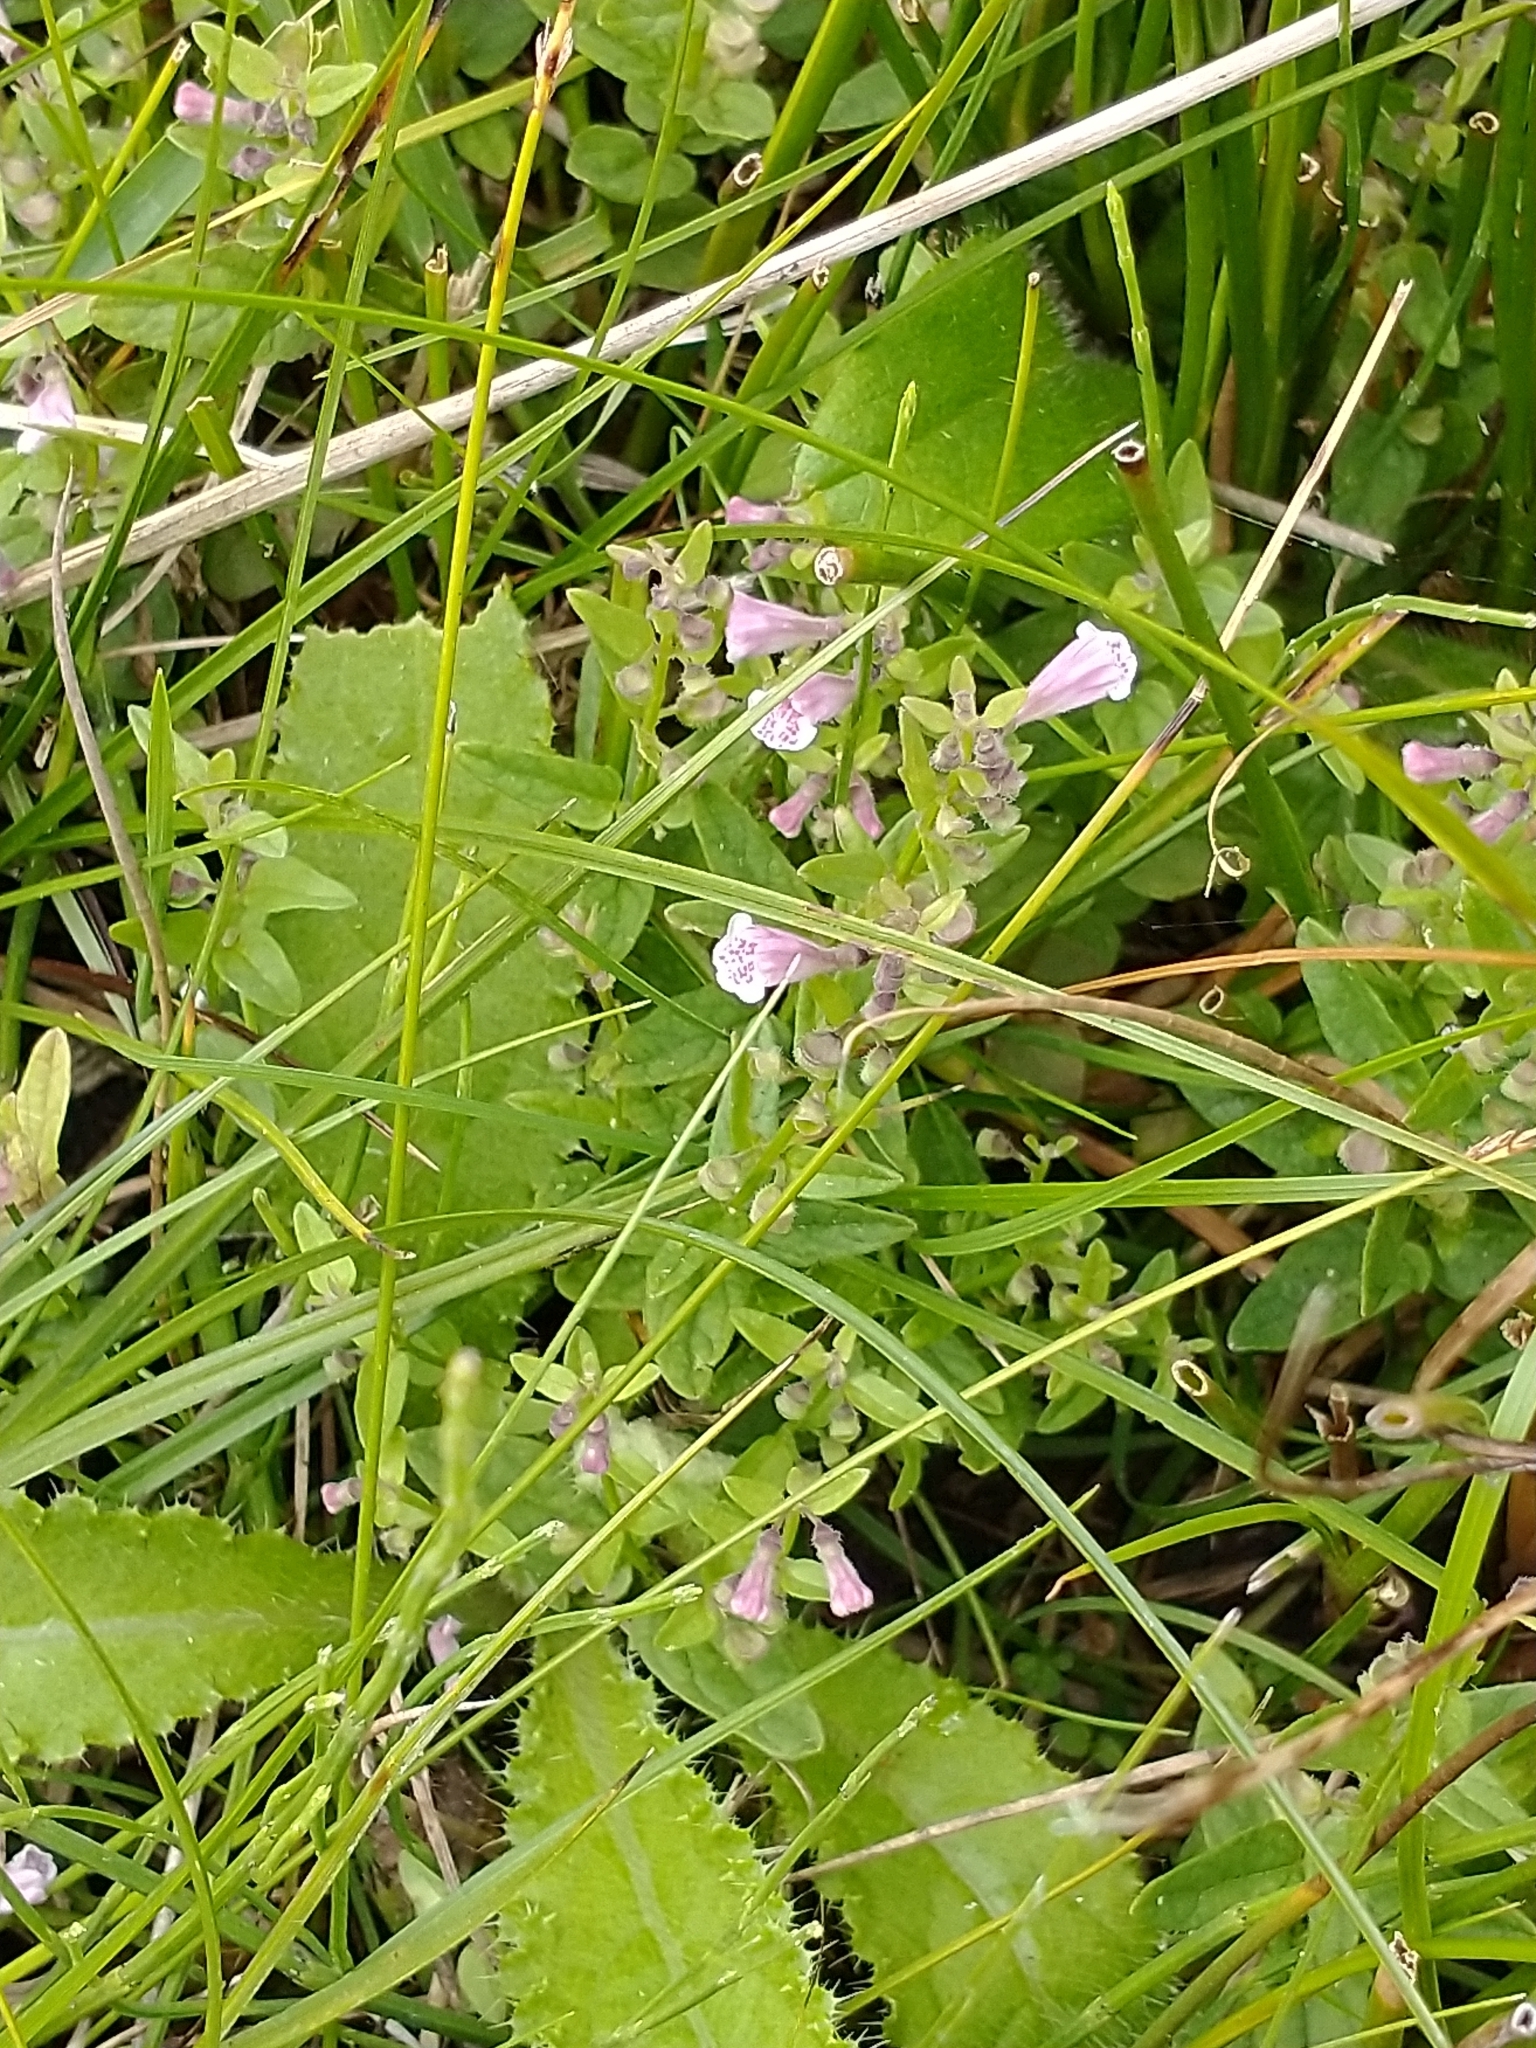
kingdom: Plantae
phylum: Tracheophyta
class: Magnoliopsida
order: Lamiales
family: Lamiaceae
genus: Scutellaria
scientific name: Scutellaria minor
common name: Lesser skullcap
